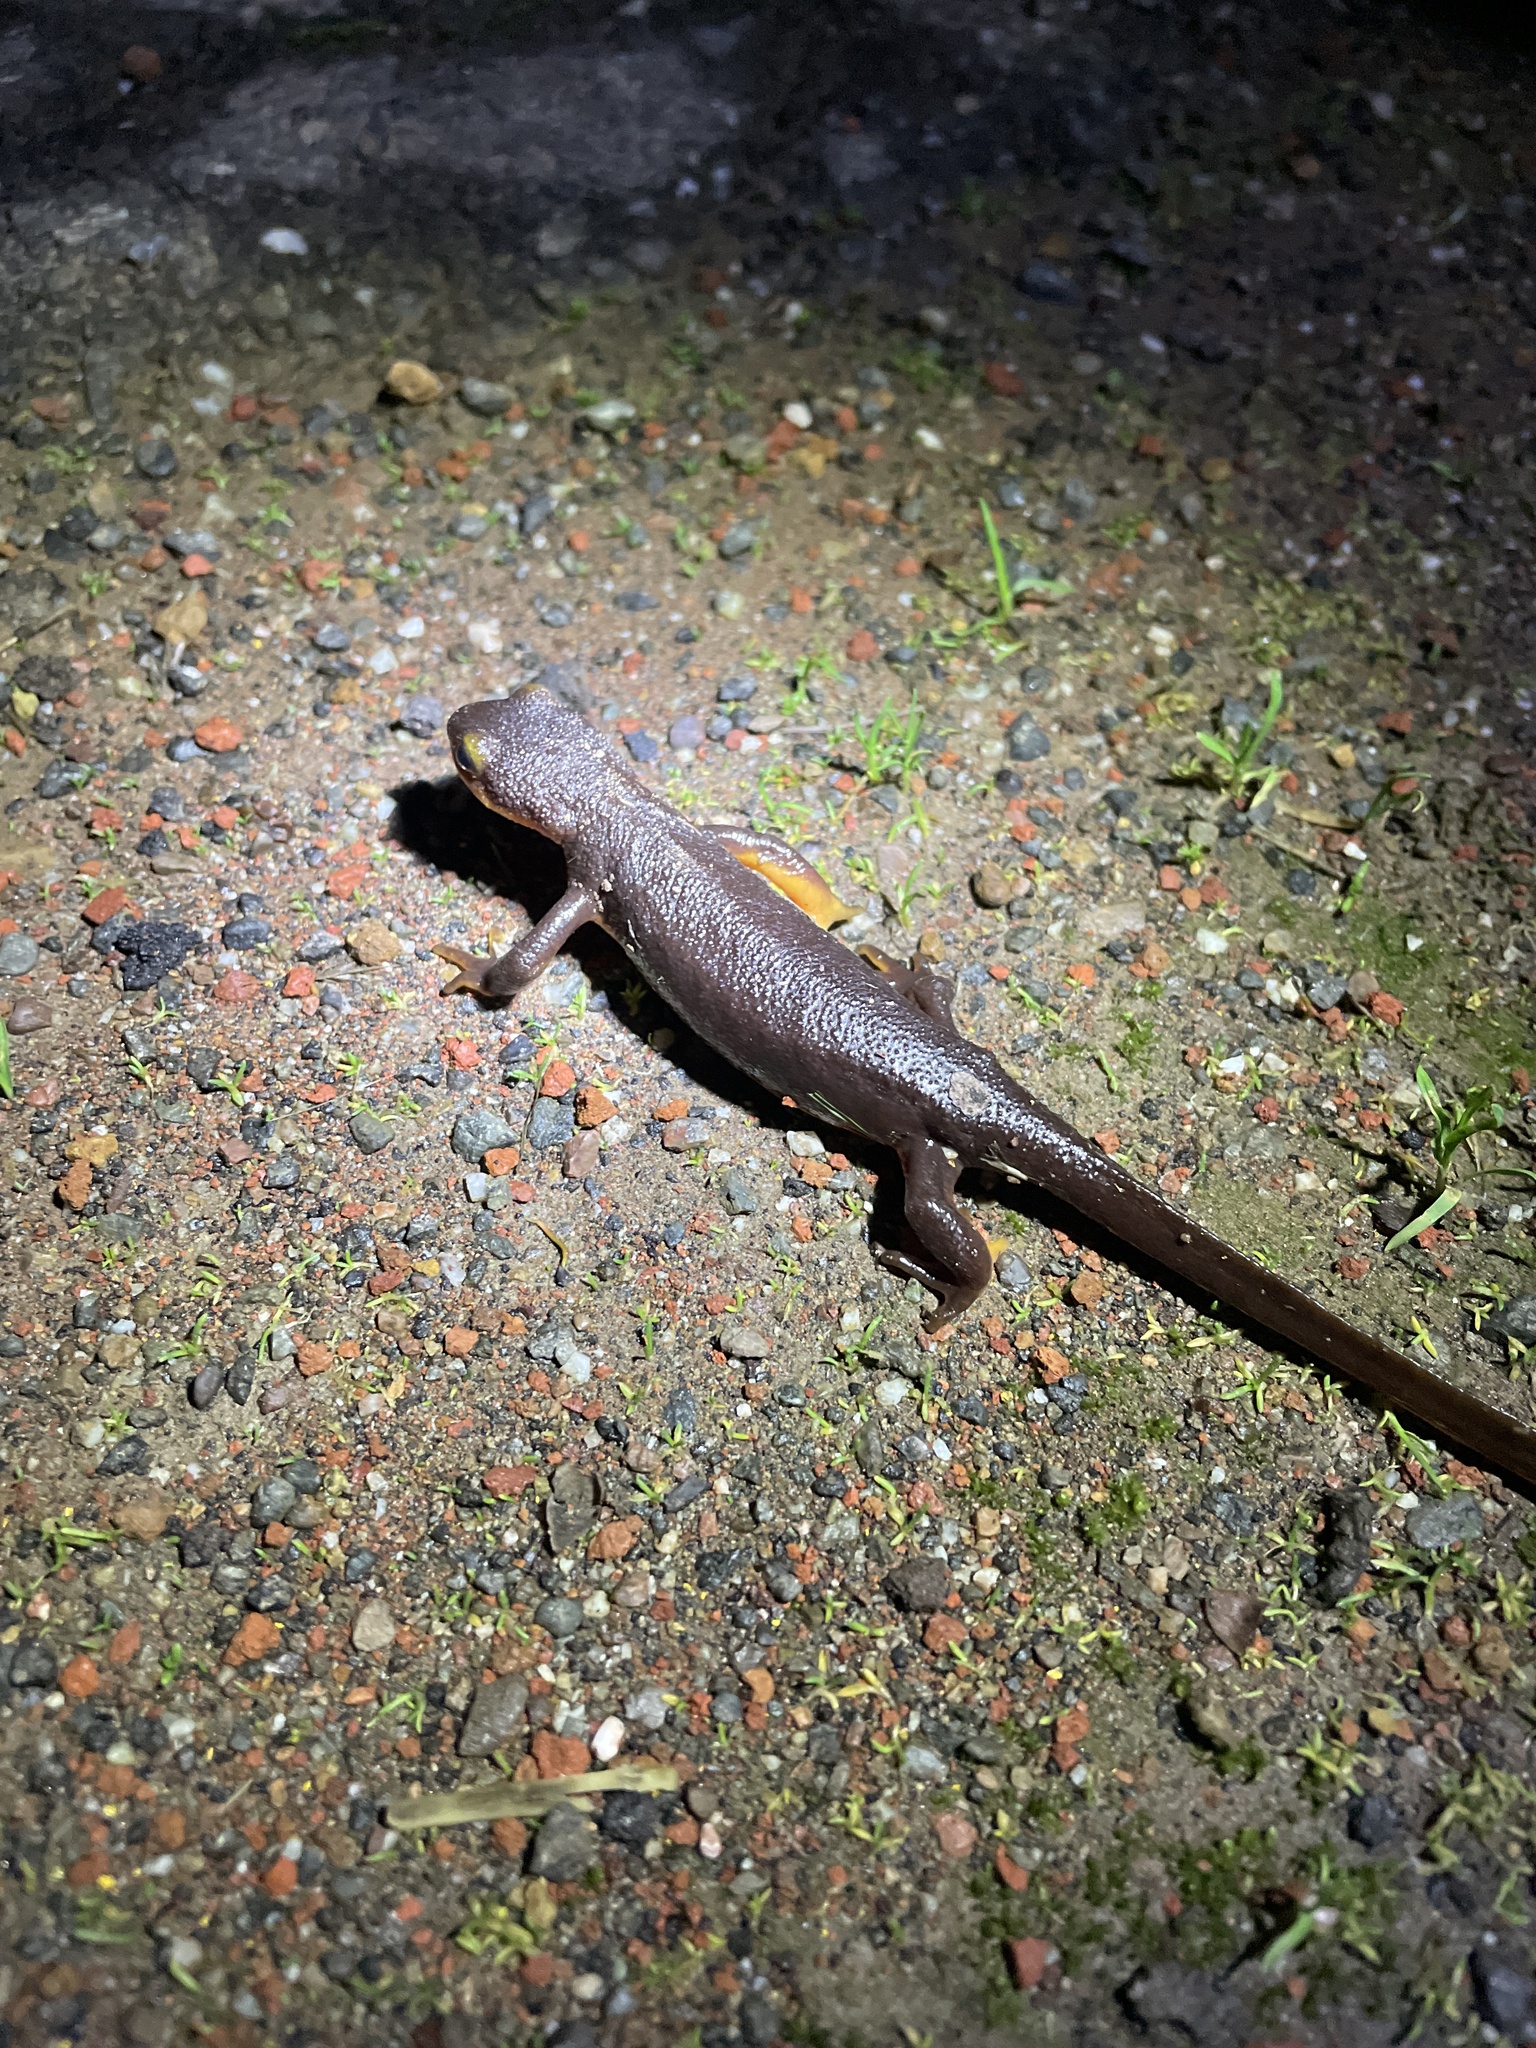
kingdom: Animalia
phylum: Chordata
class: Amphibia
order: Caudata
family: Salamandridae
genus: Taricha
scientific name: Taricha torosa
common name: California newt
